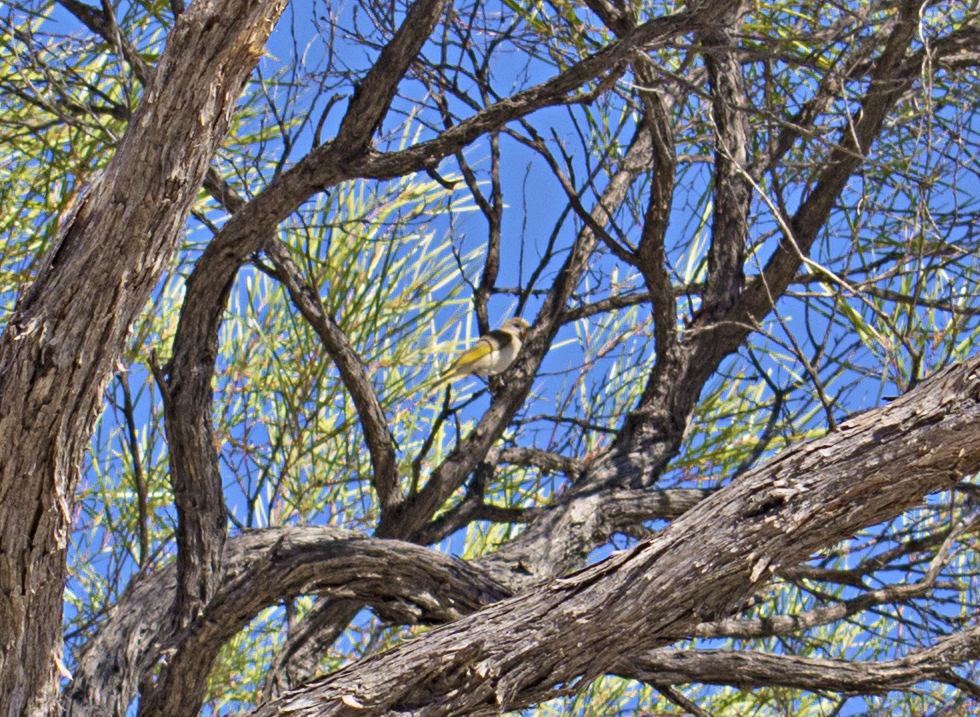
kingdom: Animalia
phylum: Chordata
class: Aves
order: Passeriformes
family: Meliphagidae
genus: Conopophila
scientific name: Conopophila rufogularis
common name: Rufous-throated honeyeater
